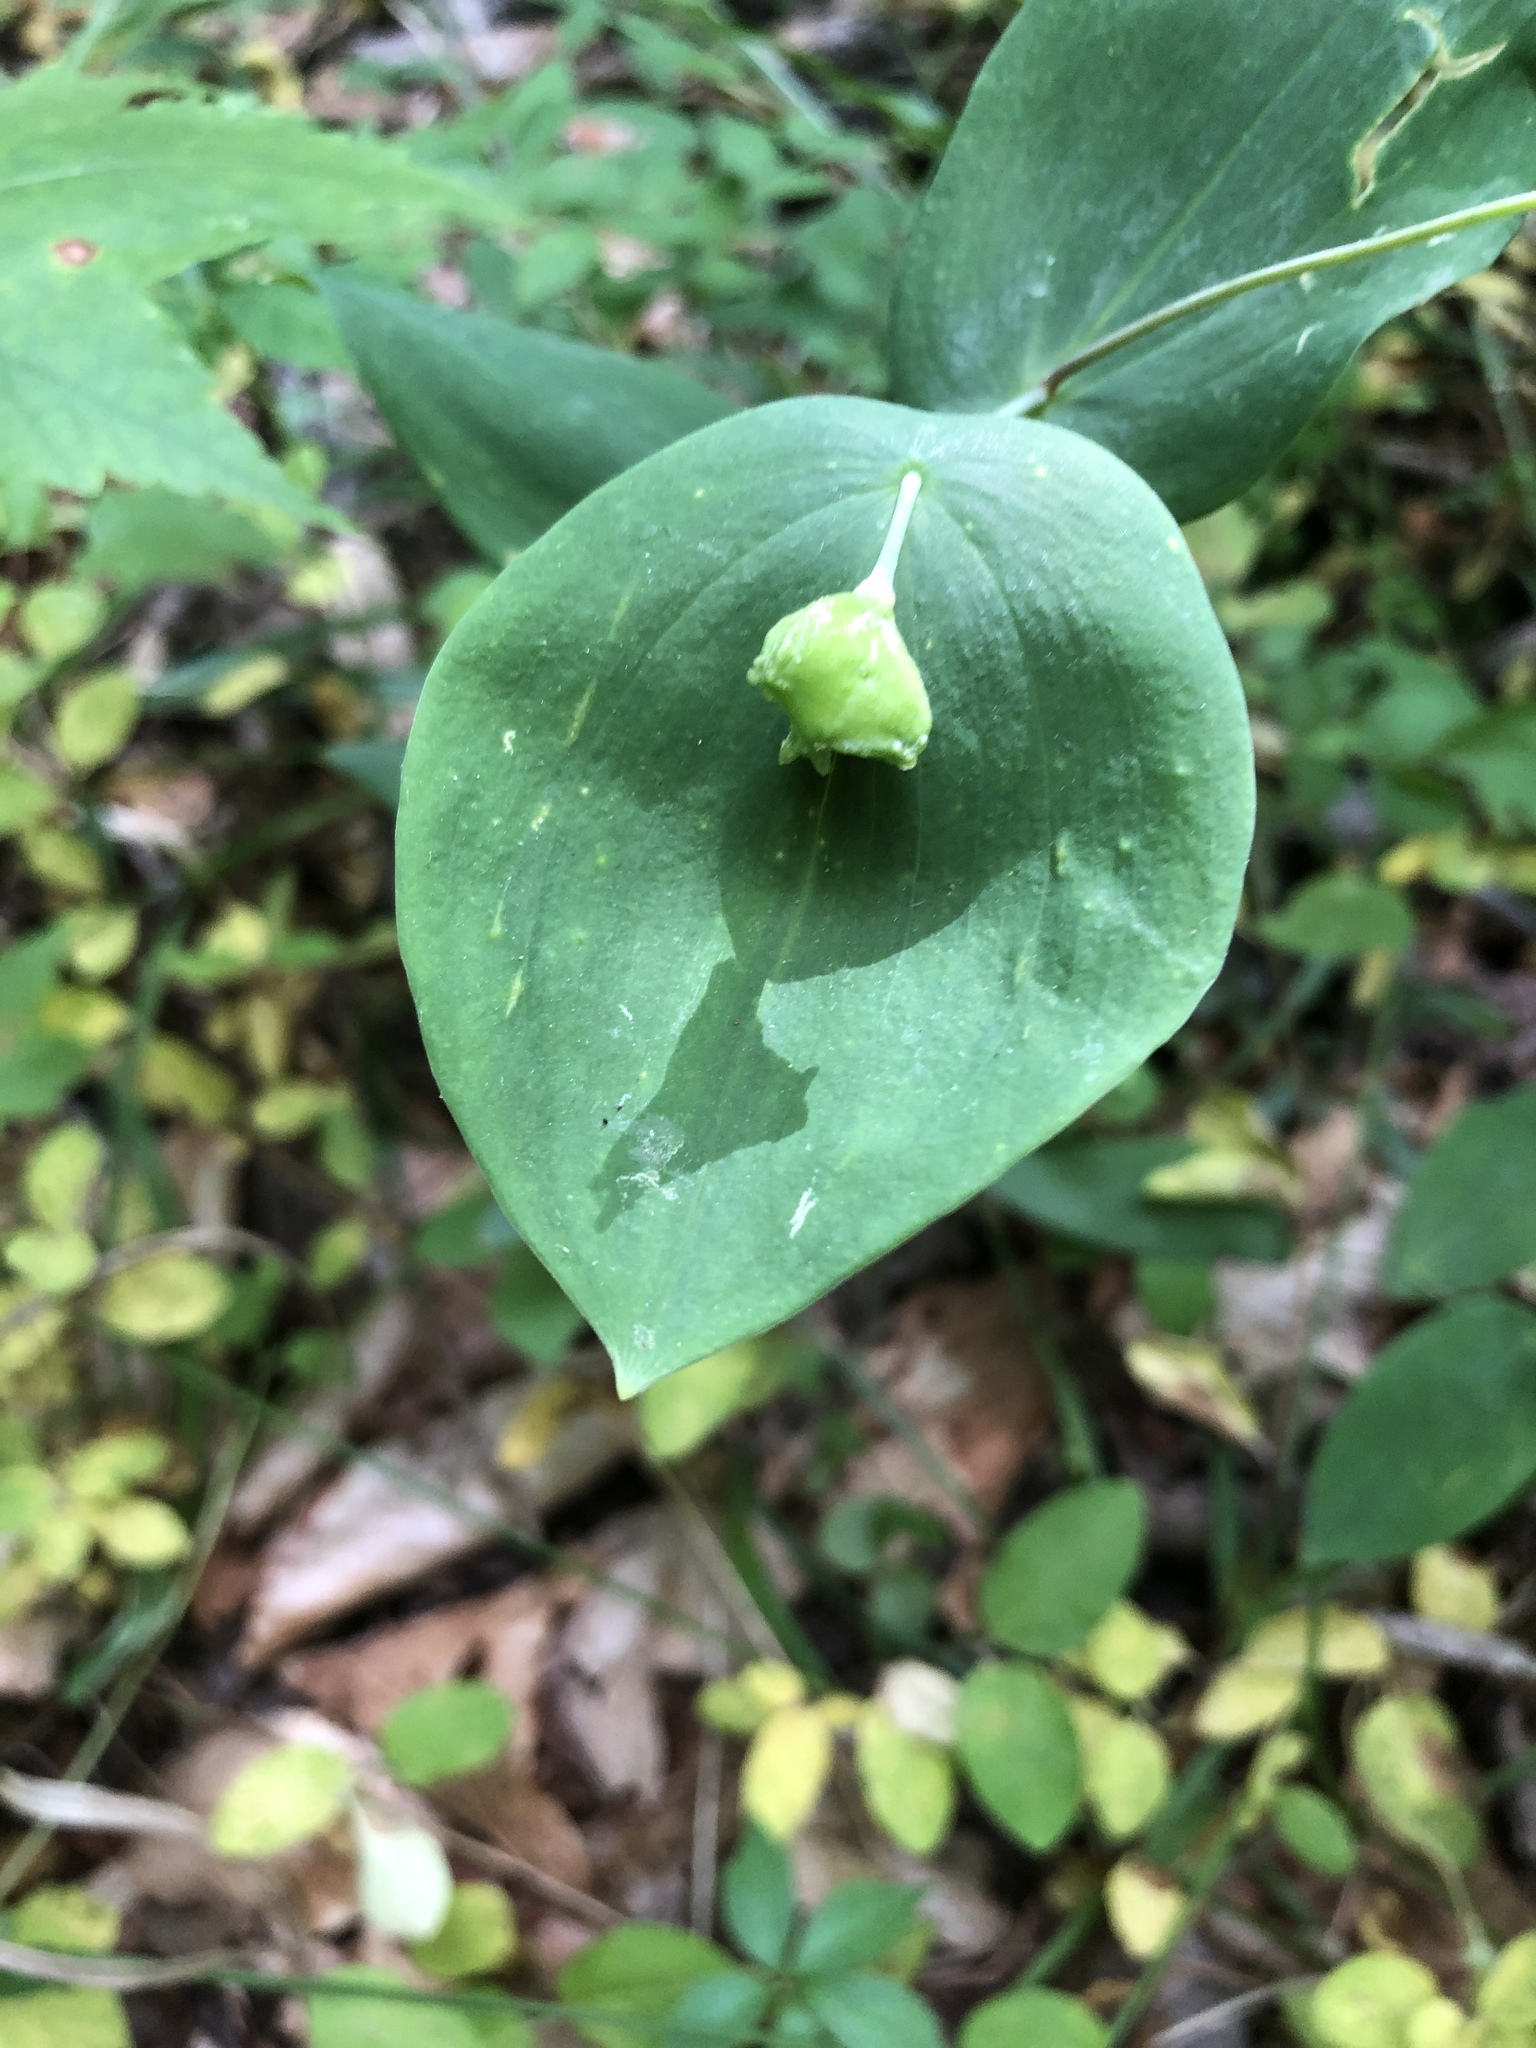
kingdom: Plantae
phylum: Tracheophyta
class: Liliopsida
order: Liliales
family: Colchicaceae
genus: Uvularia
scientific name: Uvularia perfoliata
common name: Perfoliate bellwort
